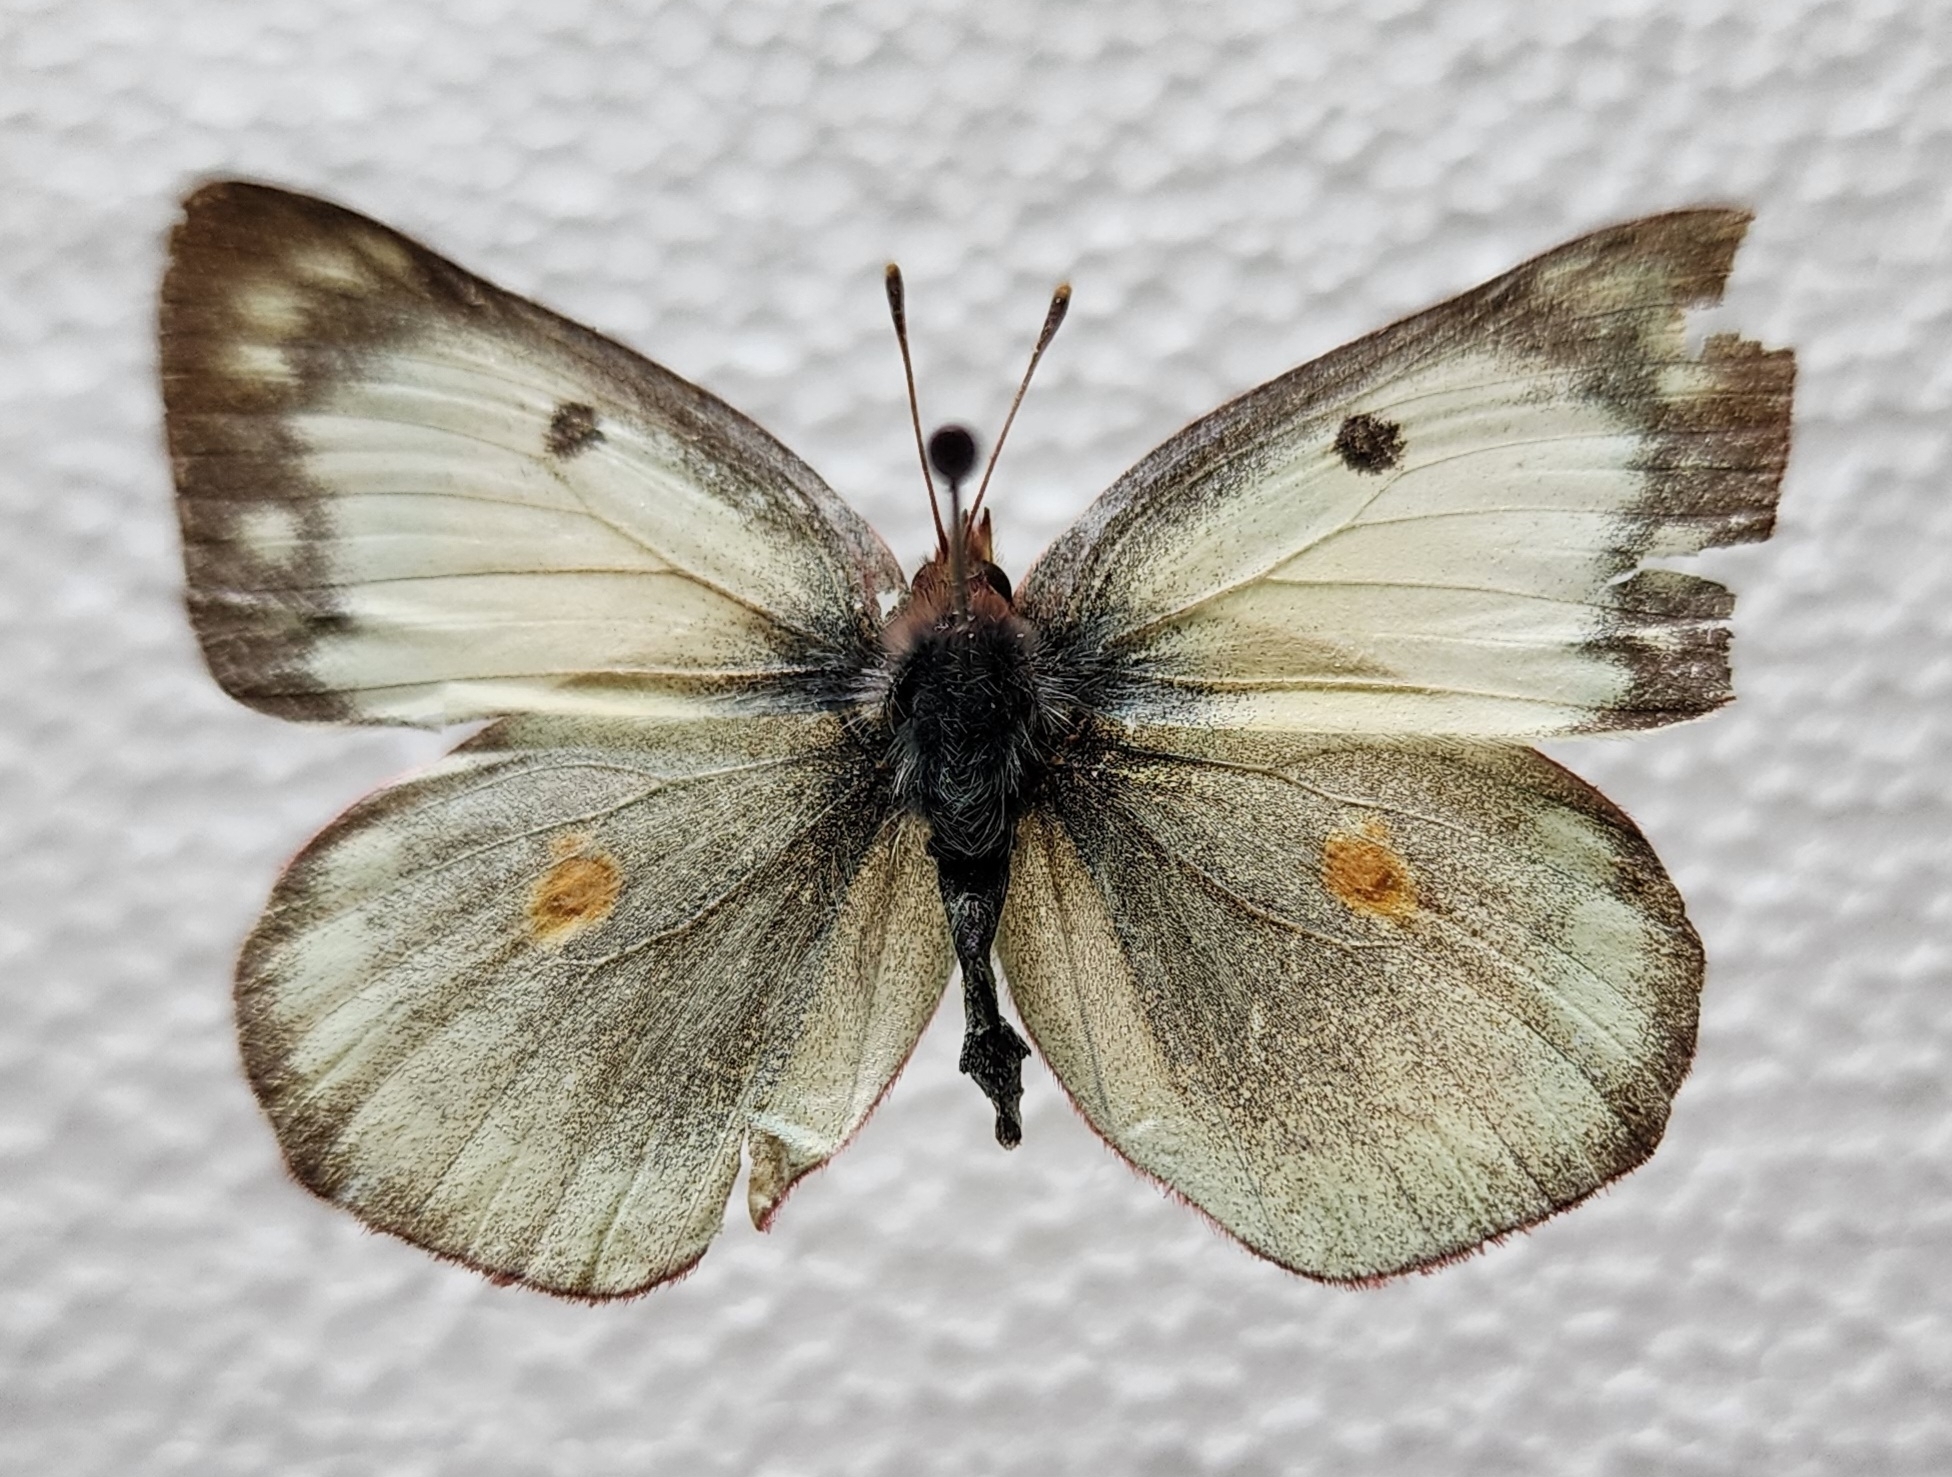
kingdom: Animalia
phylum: Arthropoda
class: Insecta
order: Lepidoptera
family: Pieridae
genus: Colias
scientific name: Colias eurytheme
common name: Alfalfa butterfly
